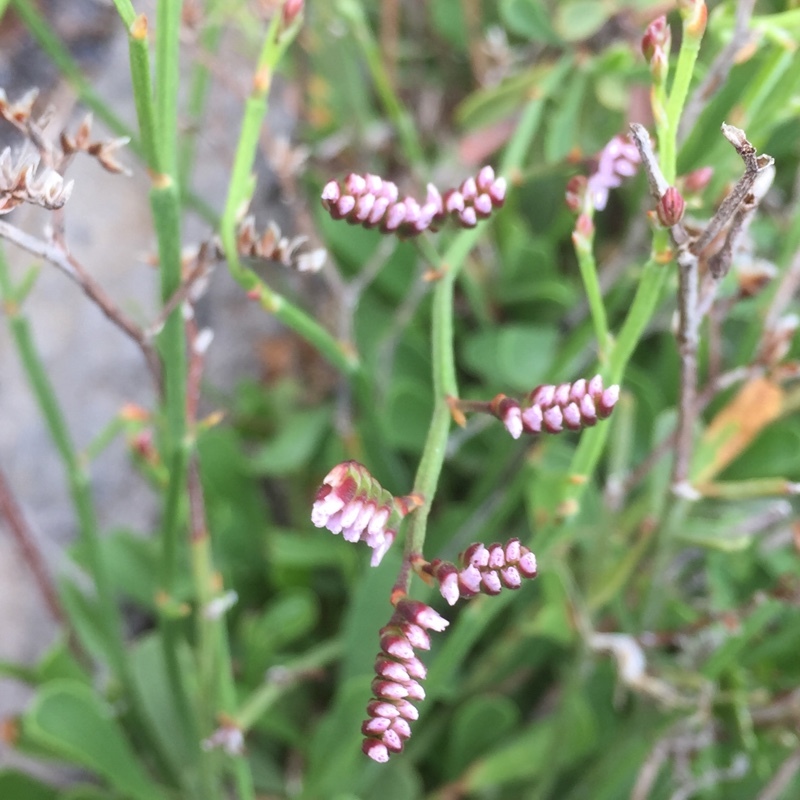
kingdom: Plantae
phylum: Tracheophyta
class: Magnoliopsida
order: Caryophyllales
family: Plumbaginaceae
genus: Limonium
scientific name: Limonium pectinatum
